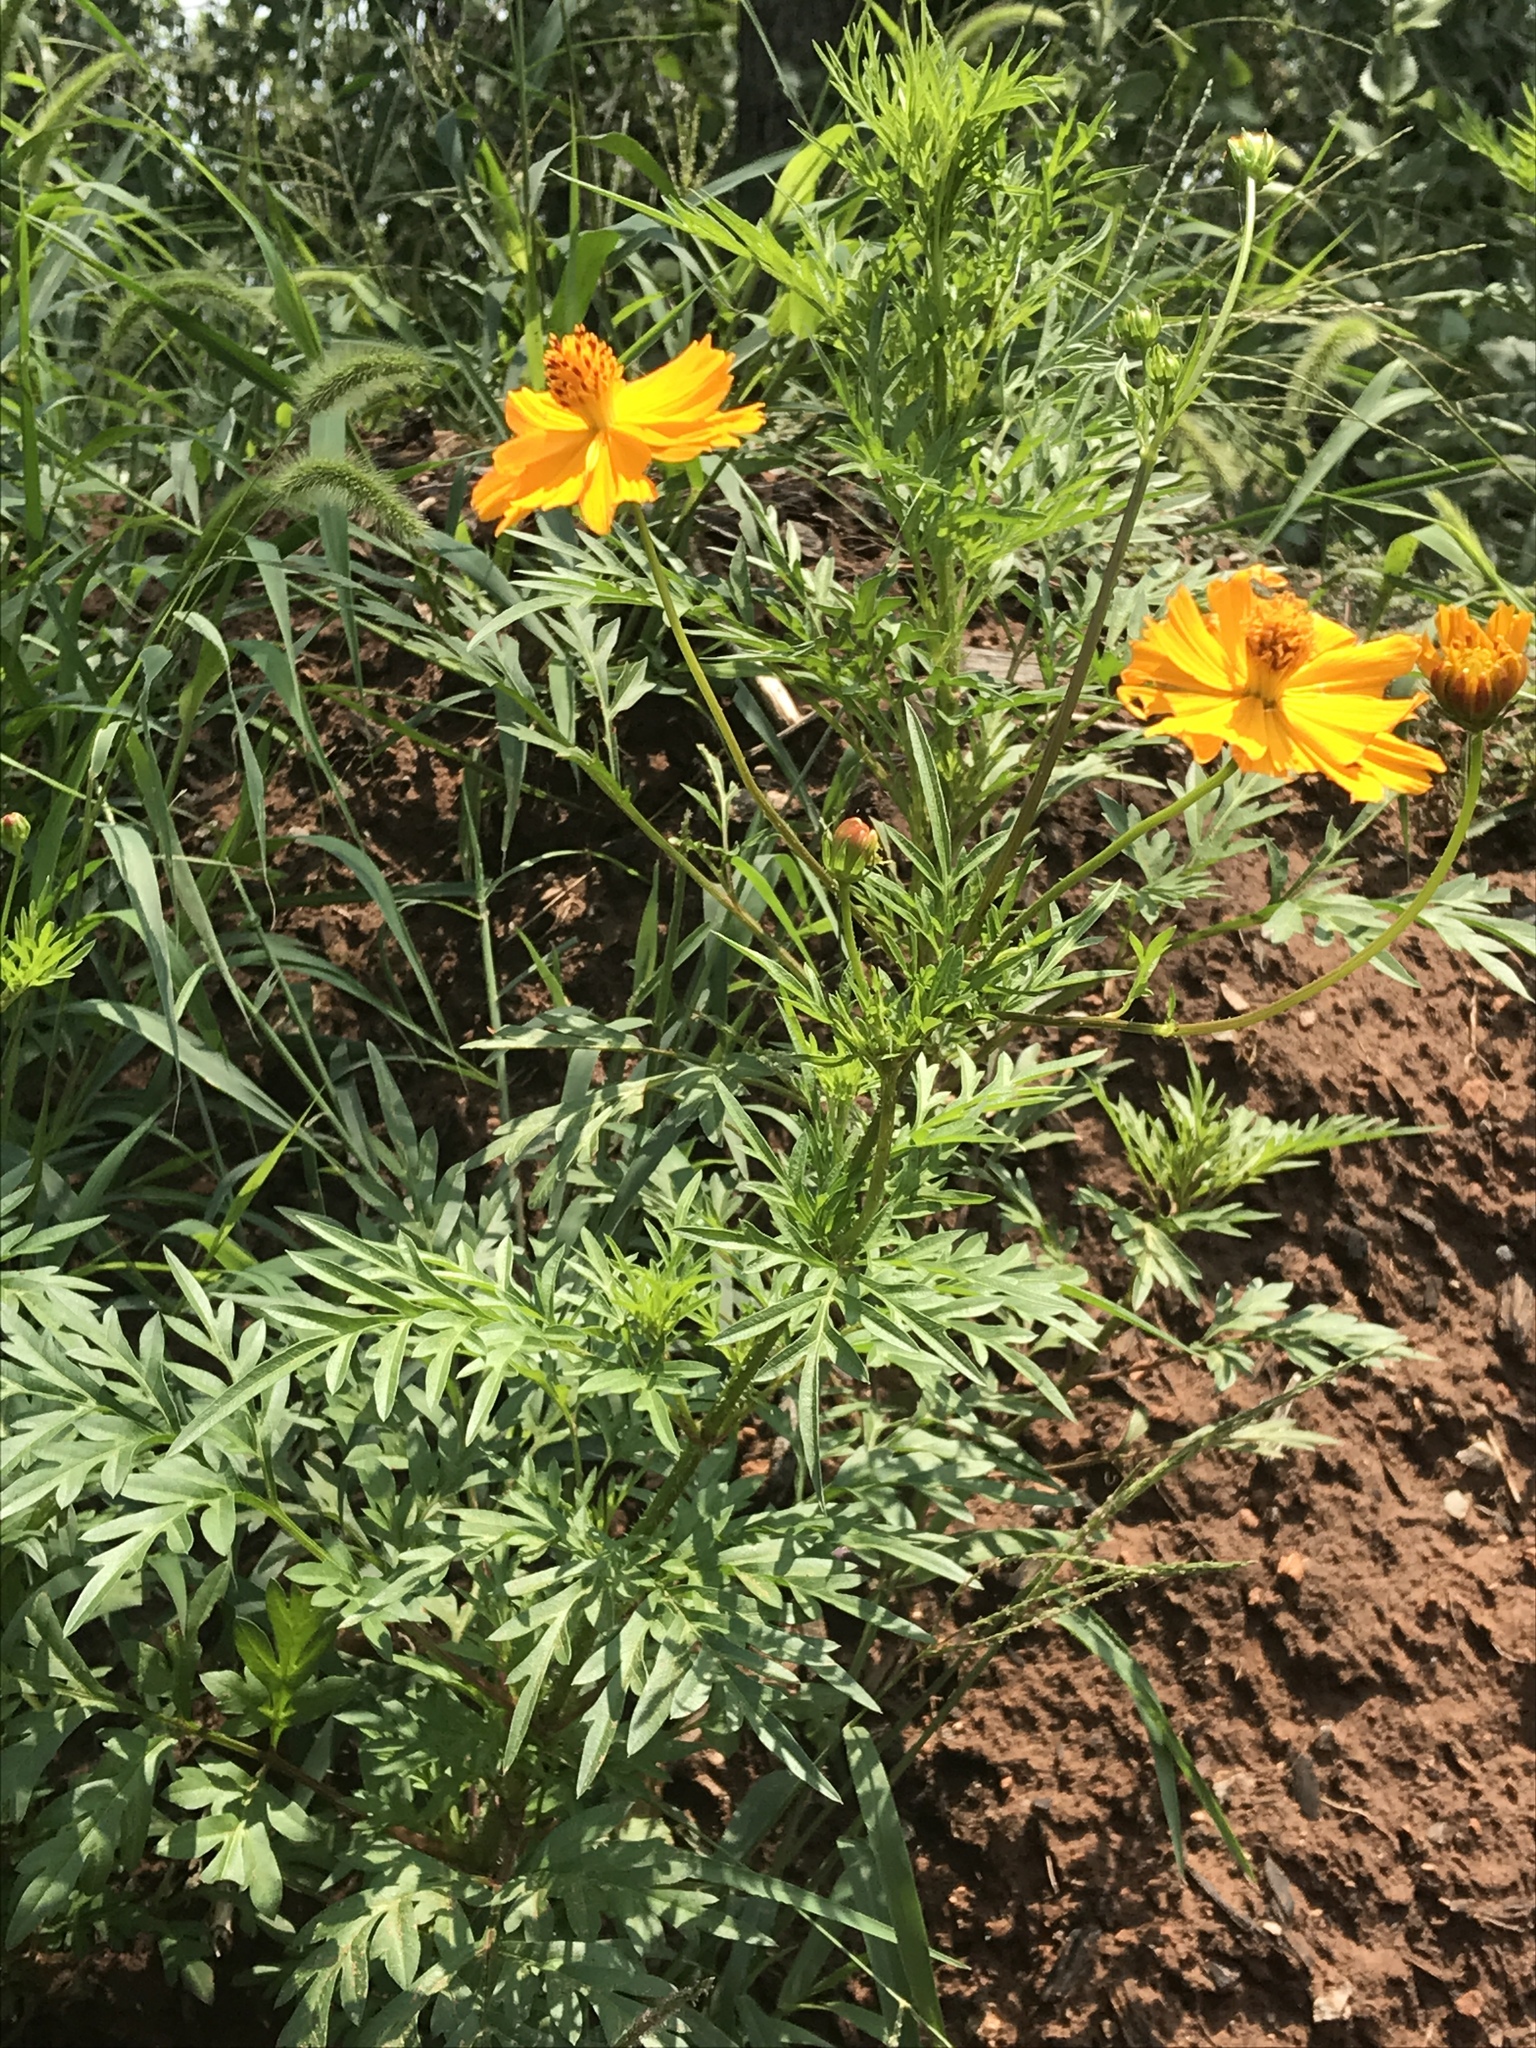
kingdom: Plantae
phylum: Tracheophyta
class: Magnoliopsida
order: Asterales
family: Asteraceae
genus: Cosmos
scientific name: Cosmos sulphureus
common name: Sulphur cosmos
